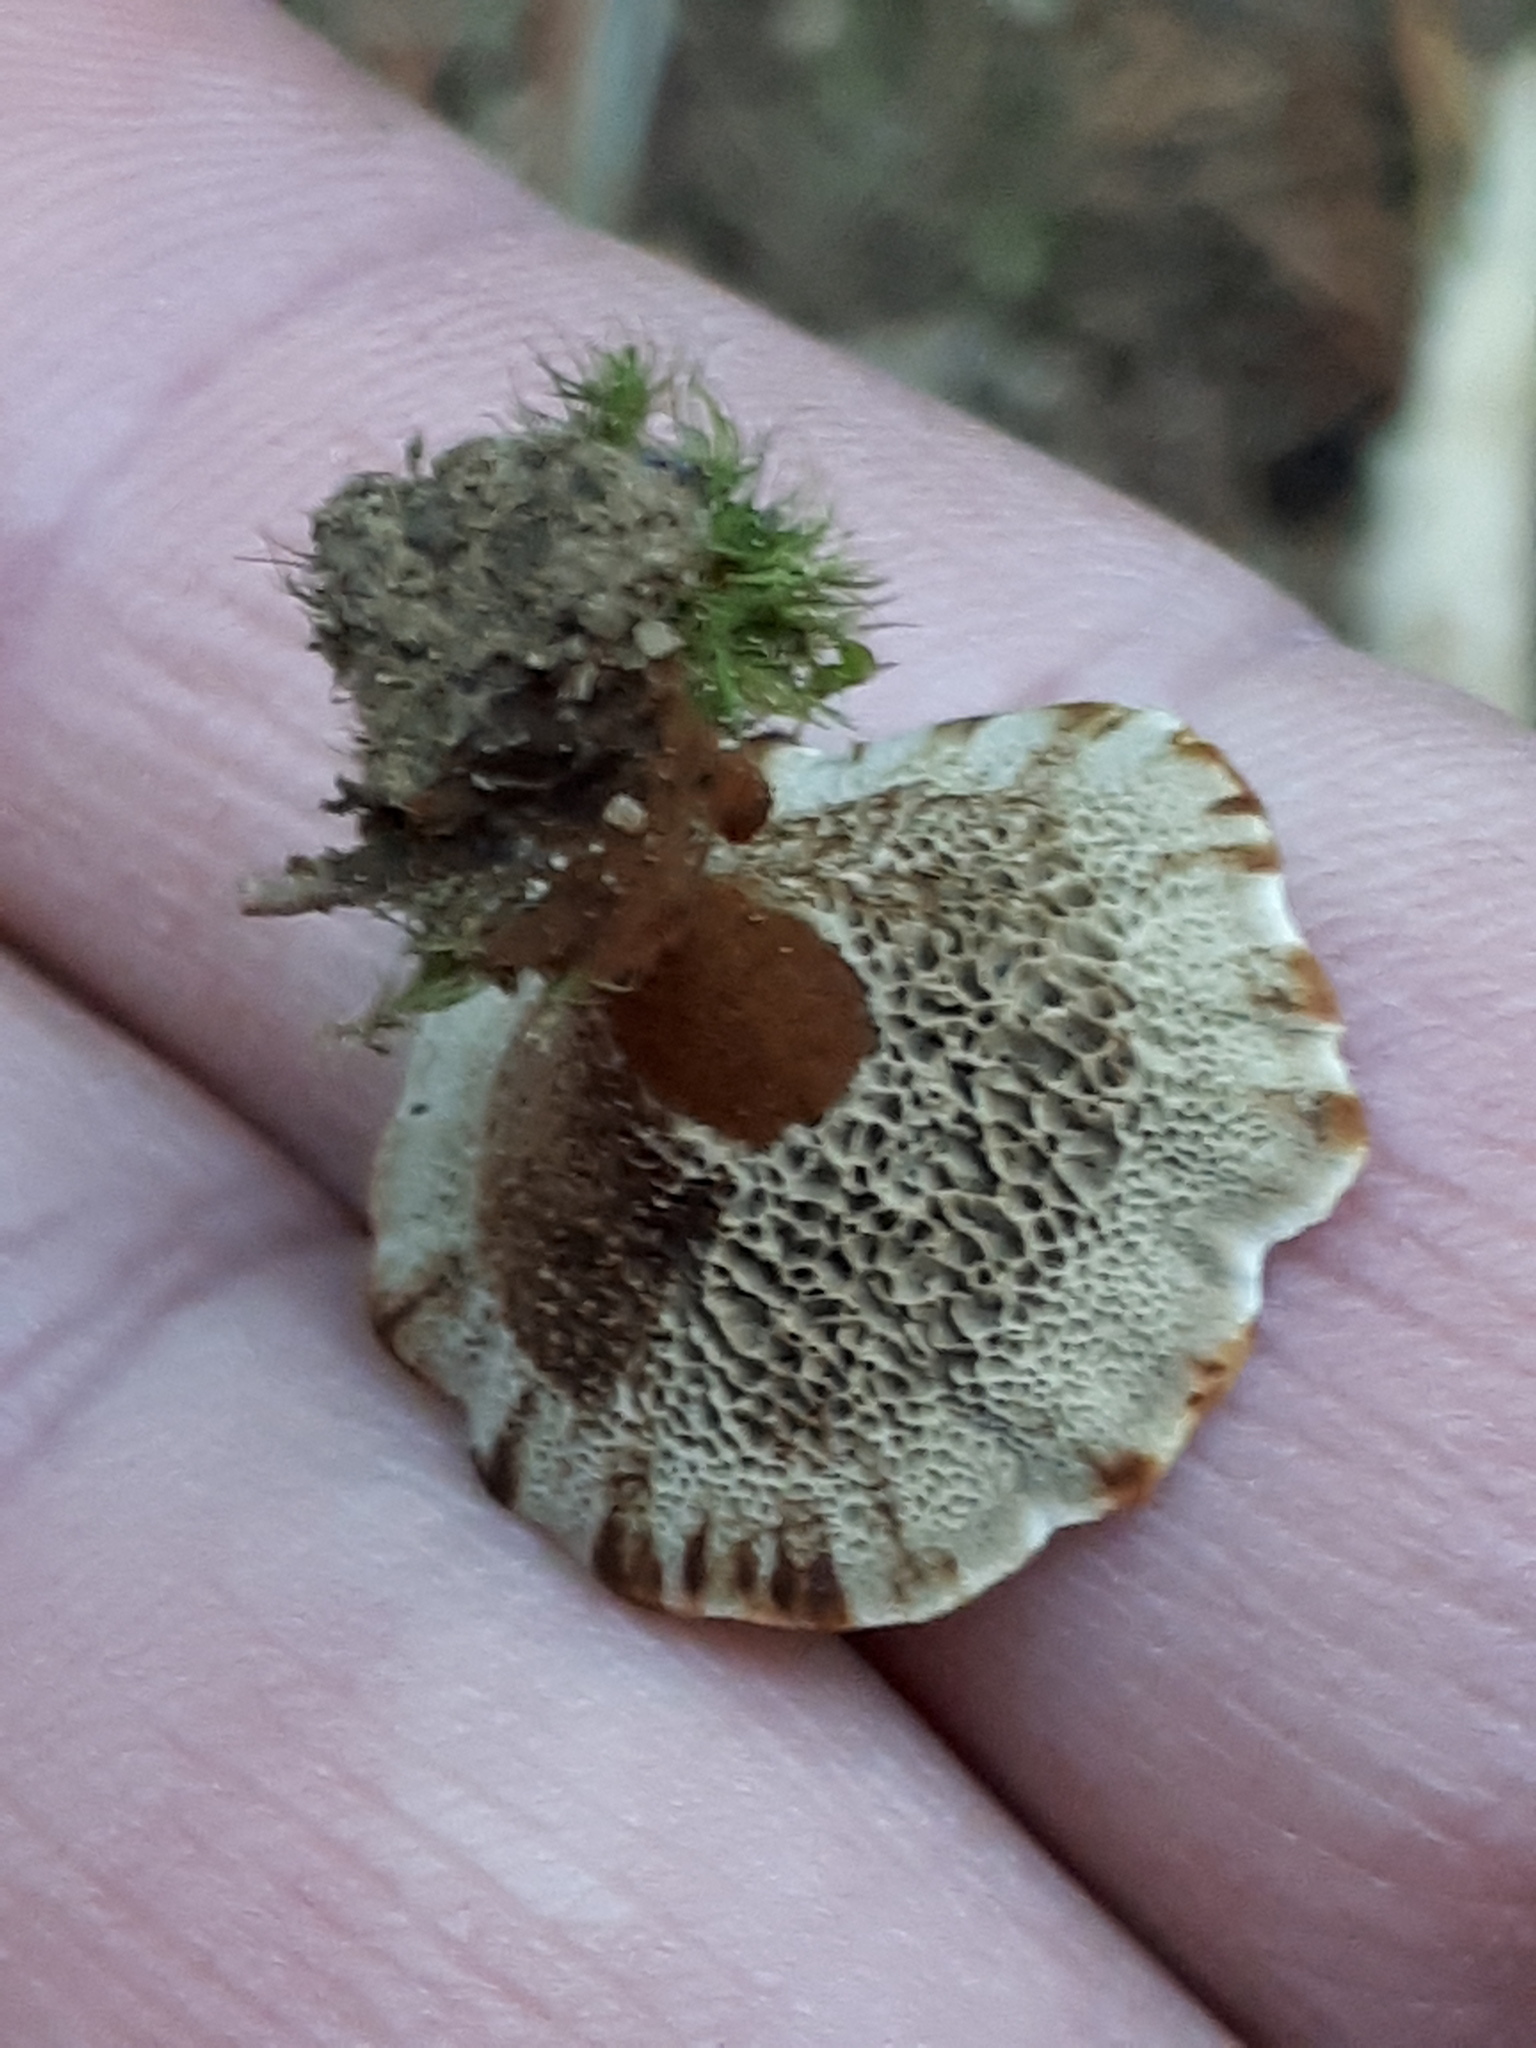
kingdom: Fungi
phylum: Basidiomycota
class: Agaricomycetes
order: Hymenochaetales
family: Hymenochaetaceae
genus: Onnia
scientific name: Onnia tomentosa
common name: Velvet rosette
